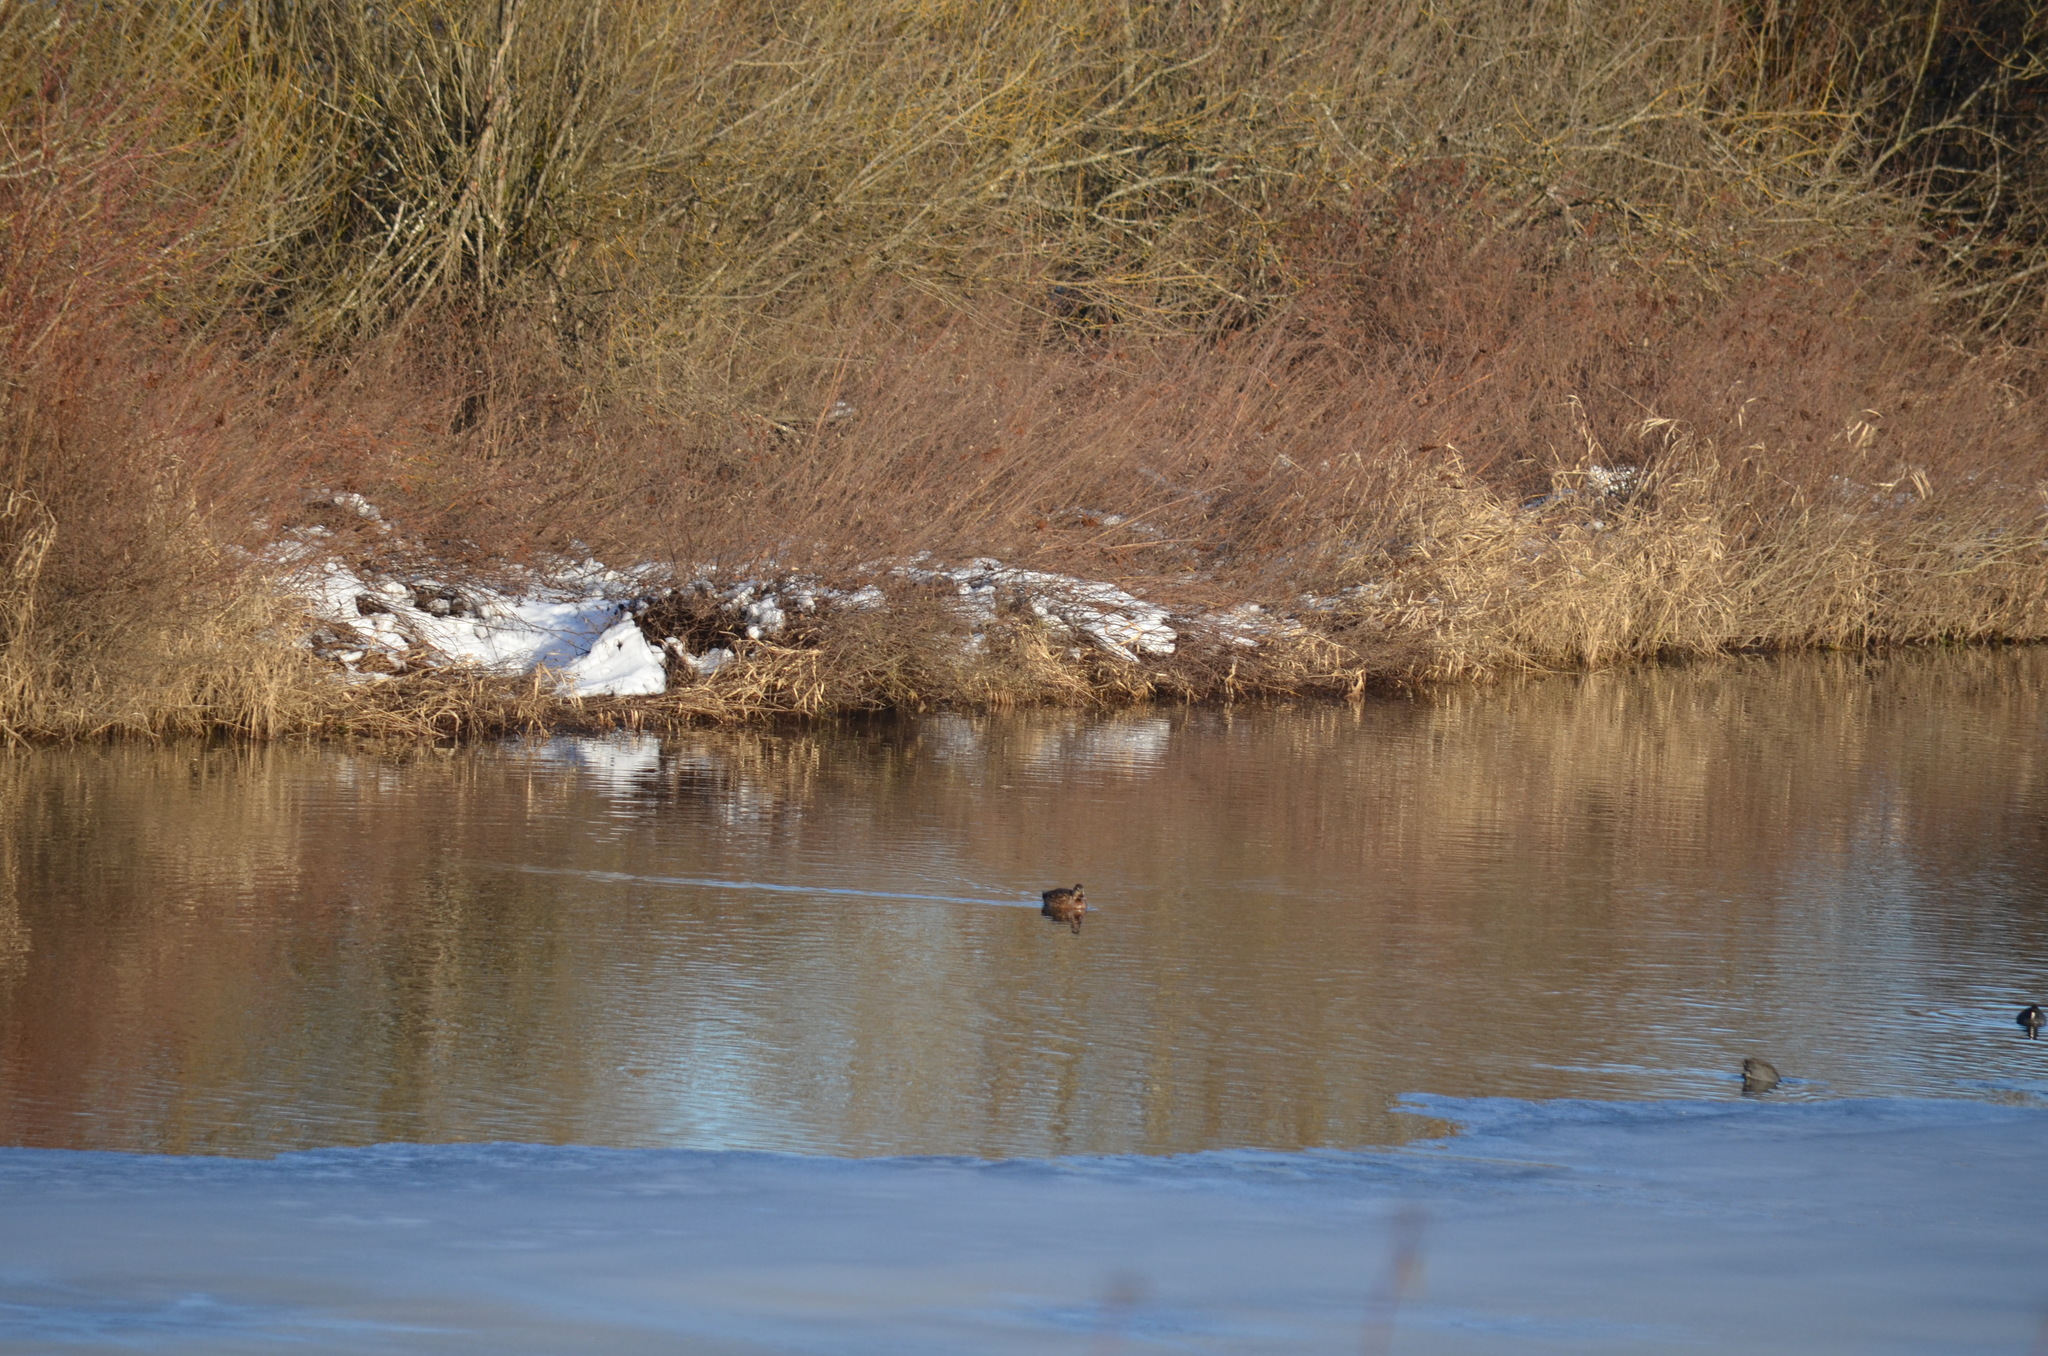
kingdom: Animalia
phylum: Chordata
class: Aves
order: Anseriformes
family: Anatidae
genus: Anas
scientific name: Anas platyrhynchos
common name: Mallard
